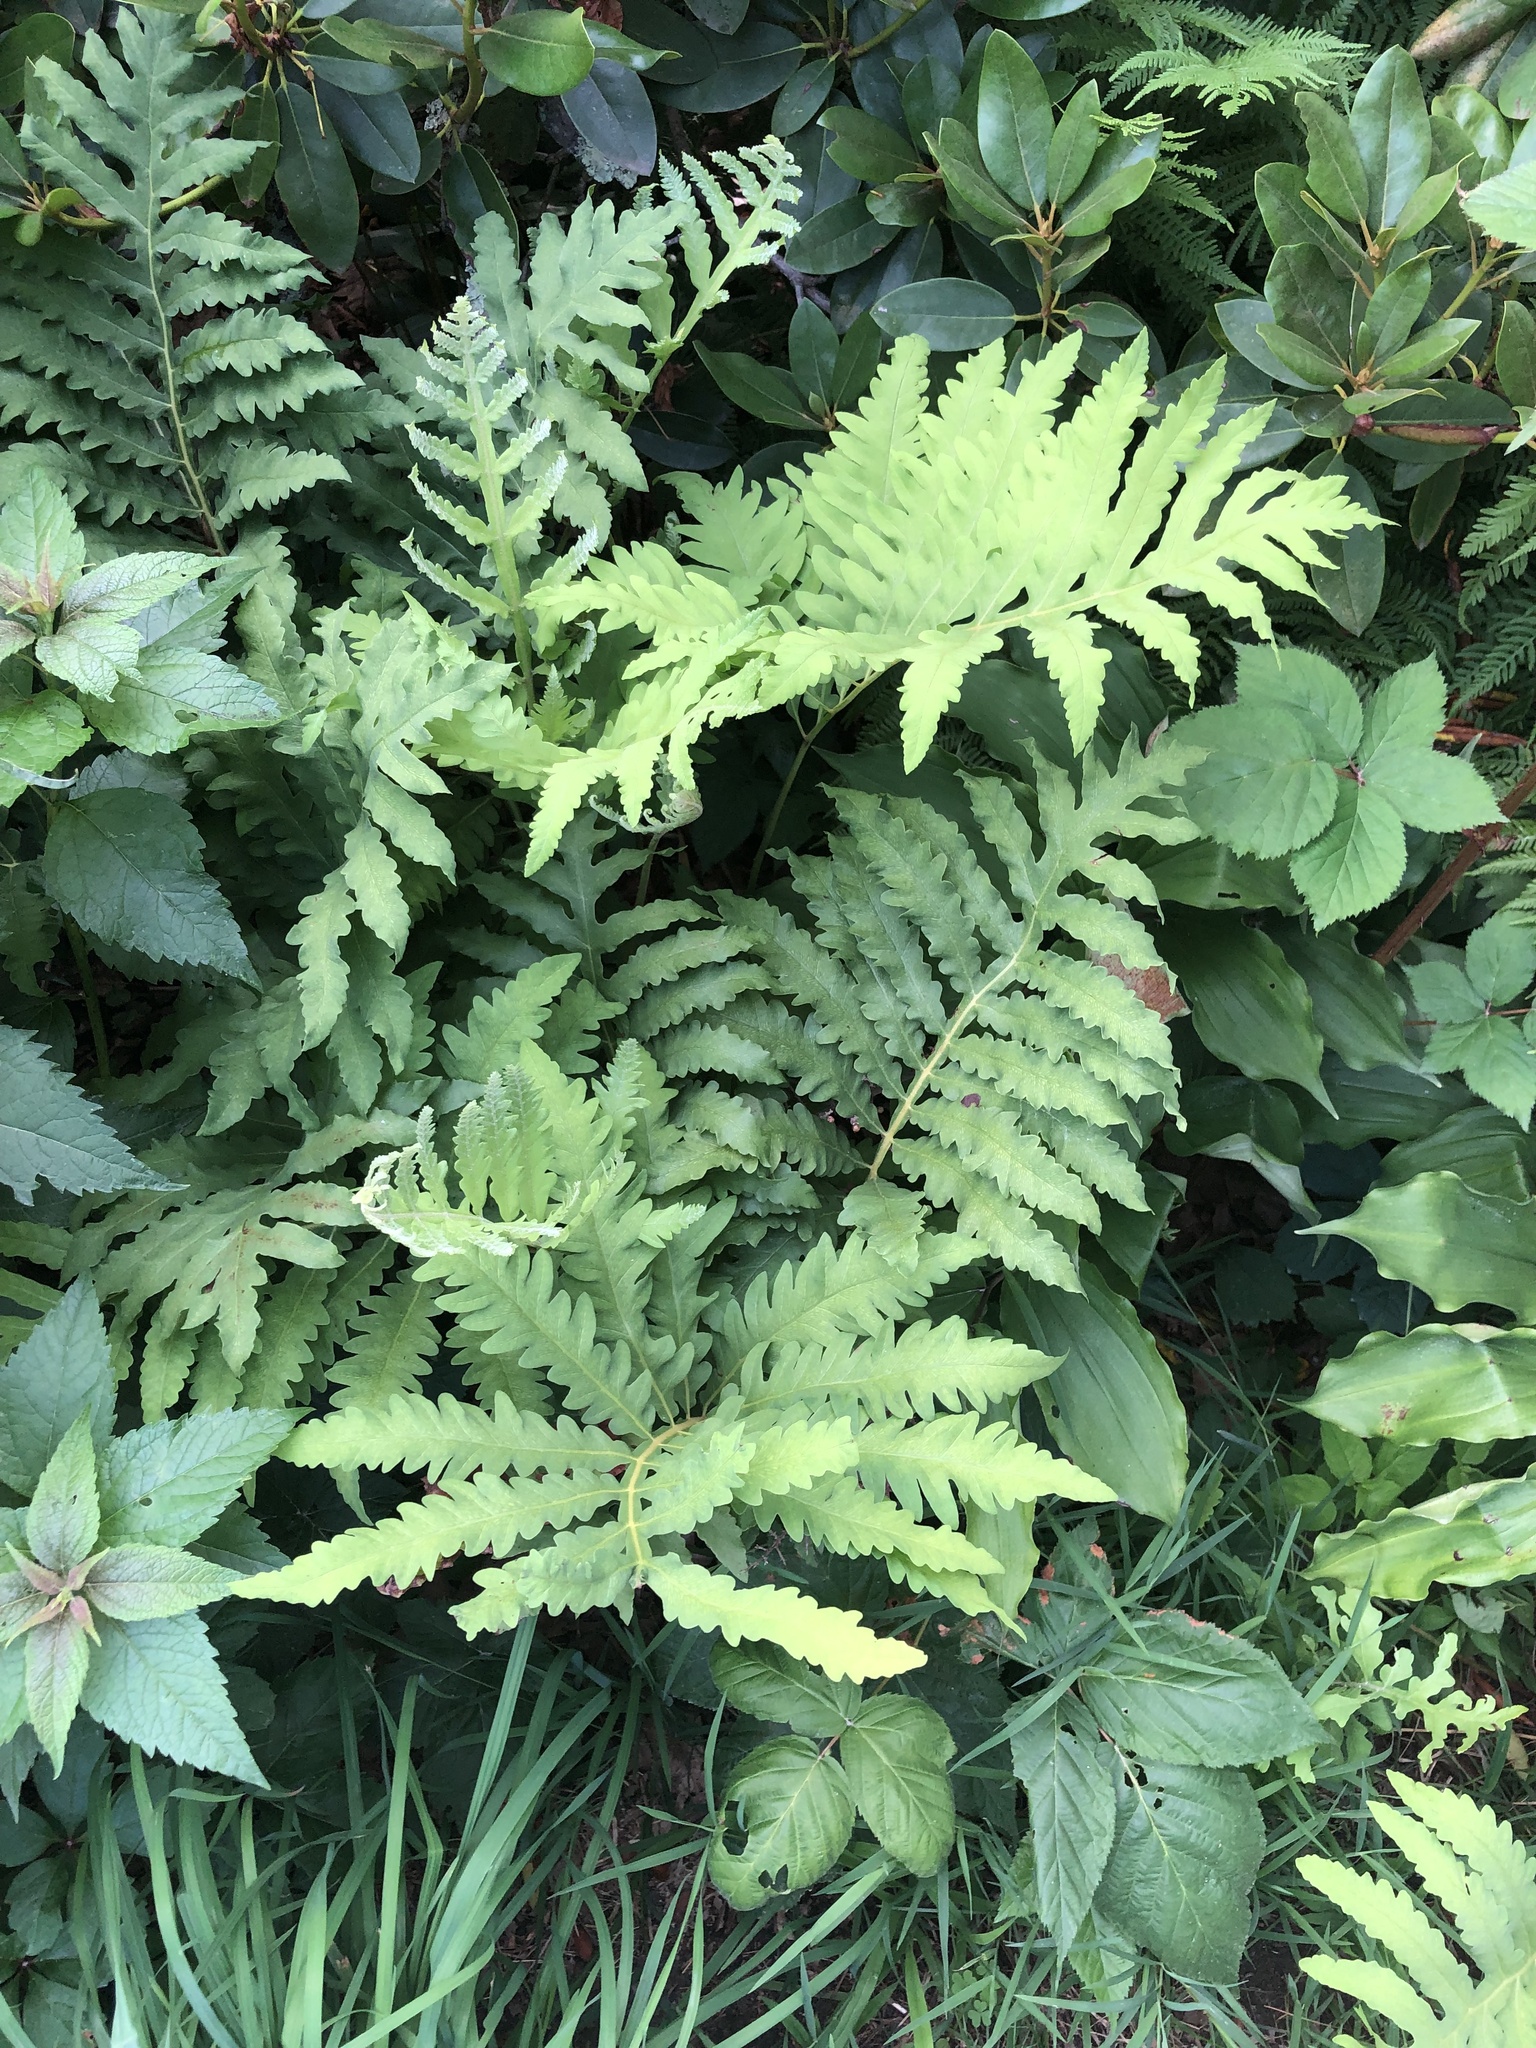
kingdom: Plantae
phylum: Tracheophyta
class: Polypodiopsida
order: Polypodiales
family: Onocleaceae
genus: Onoclea
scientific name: Onoclea sensibilis
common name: Sensitive fern
